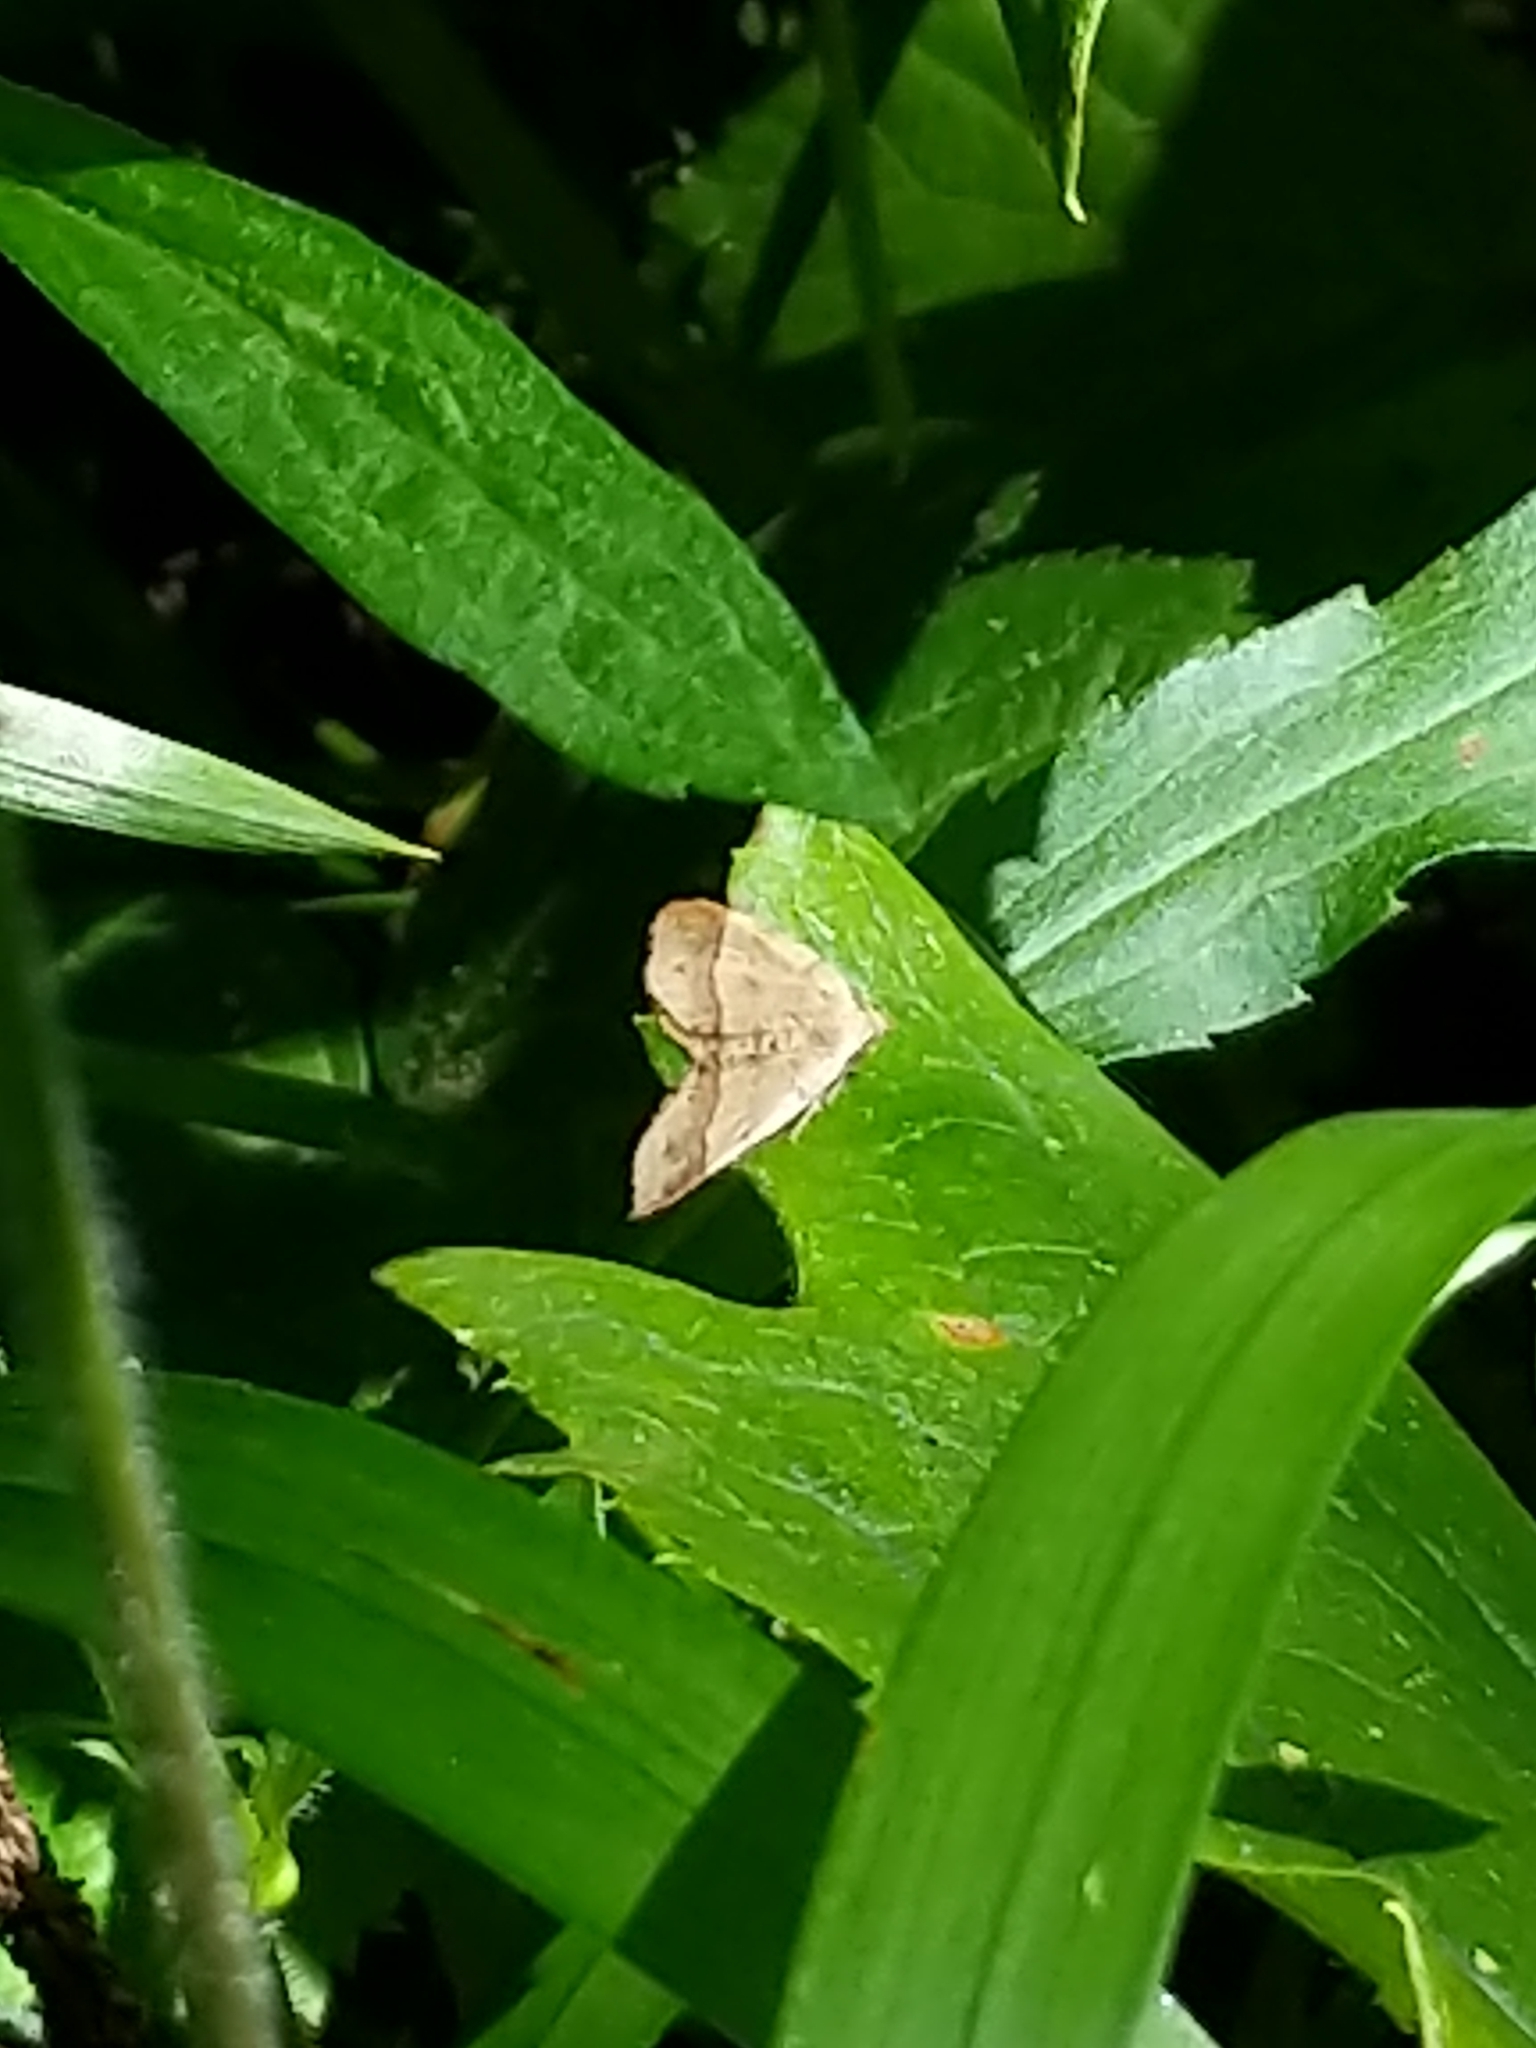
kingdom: Animalia
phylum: Arthropoda
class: Insecta
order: Lepidoptera
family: Geometridae
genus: Mellilla
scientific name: Mellilla xanthometata
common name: Orange wing moth
